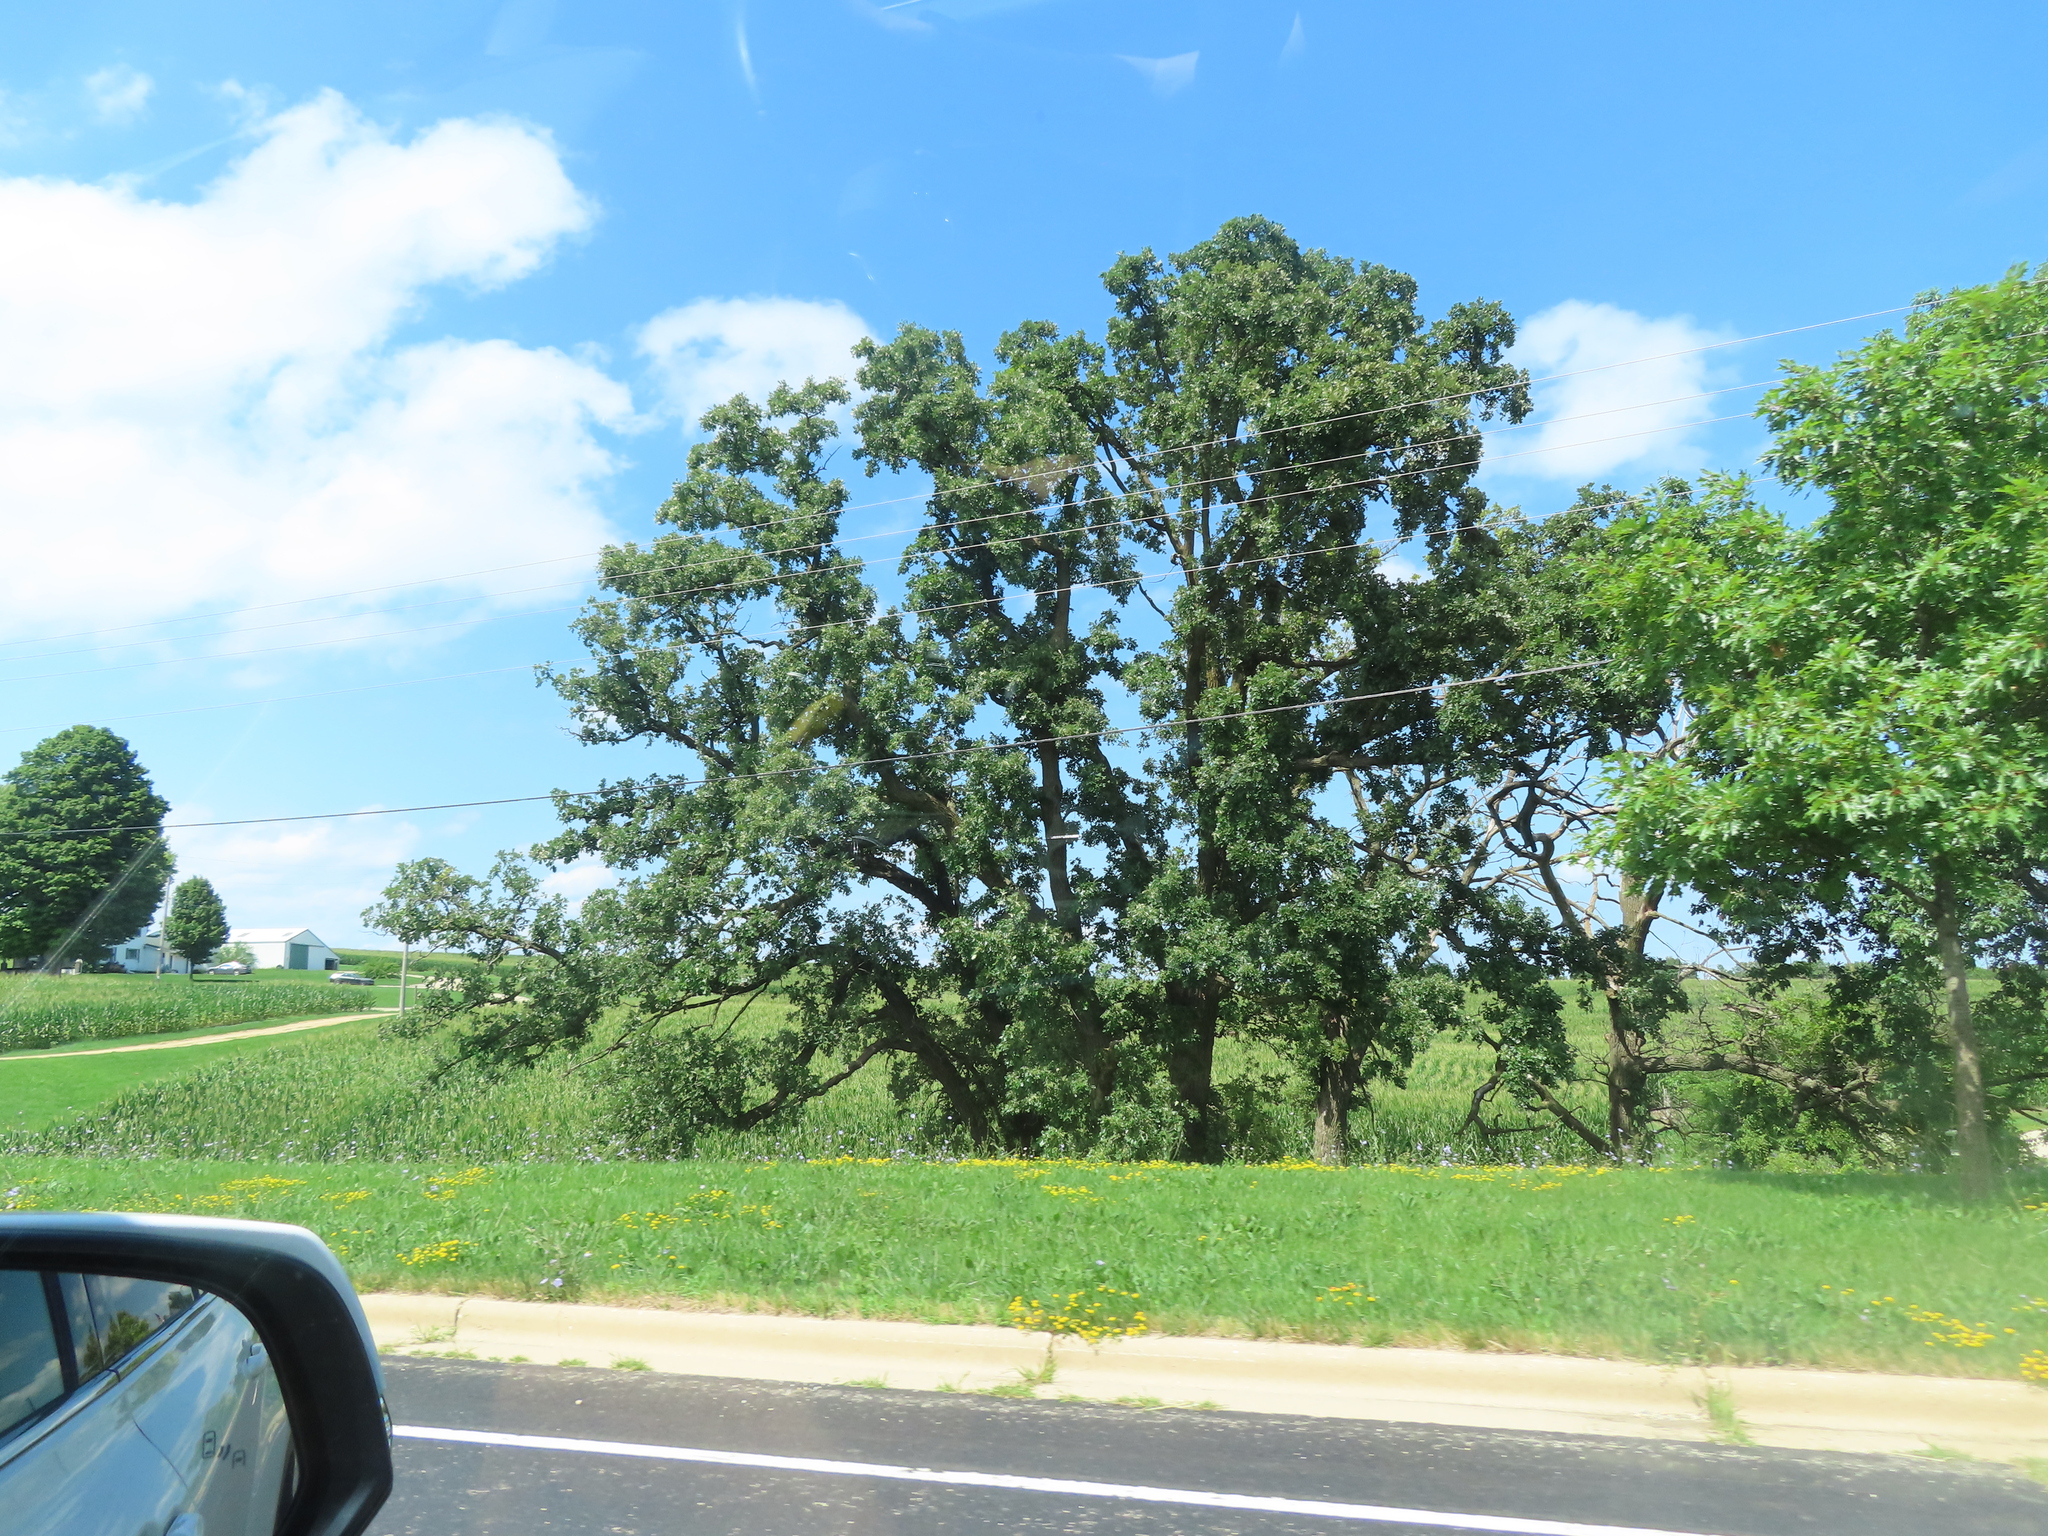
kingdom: Plantae
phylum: Tracheophyta
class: Magnoliopsida
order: Fagales
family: Fagaceae
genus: Quercus
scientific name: Quercus macrocarpa
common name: Bur oak
